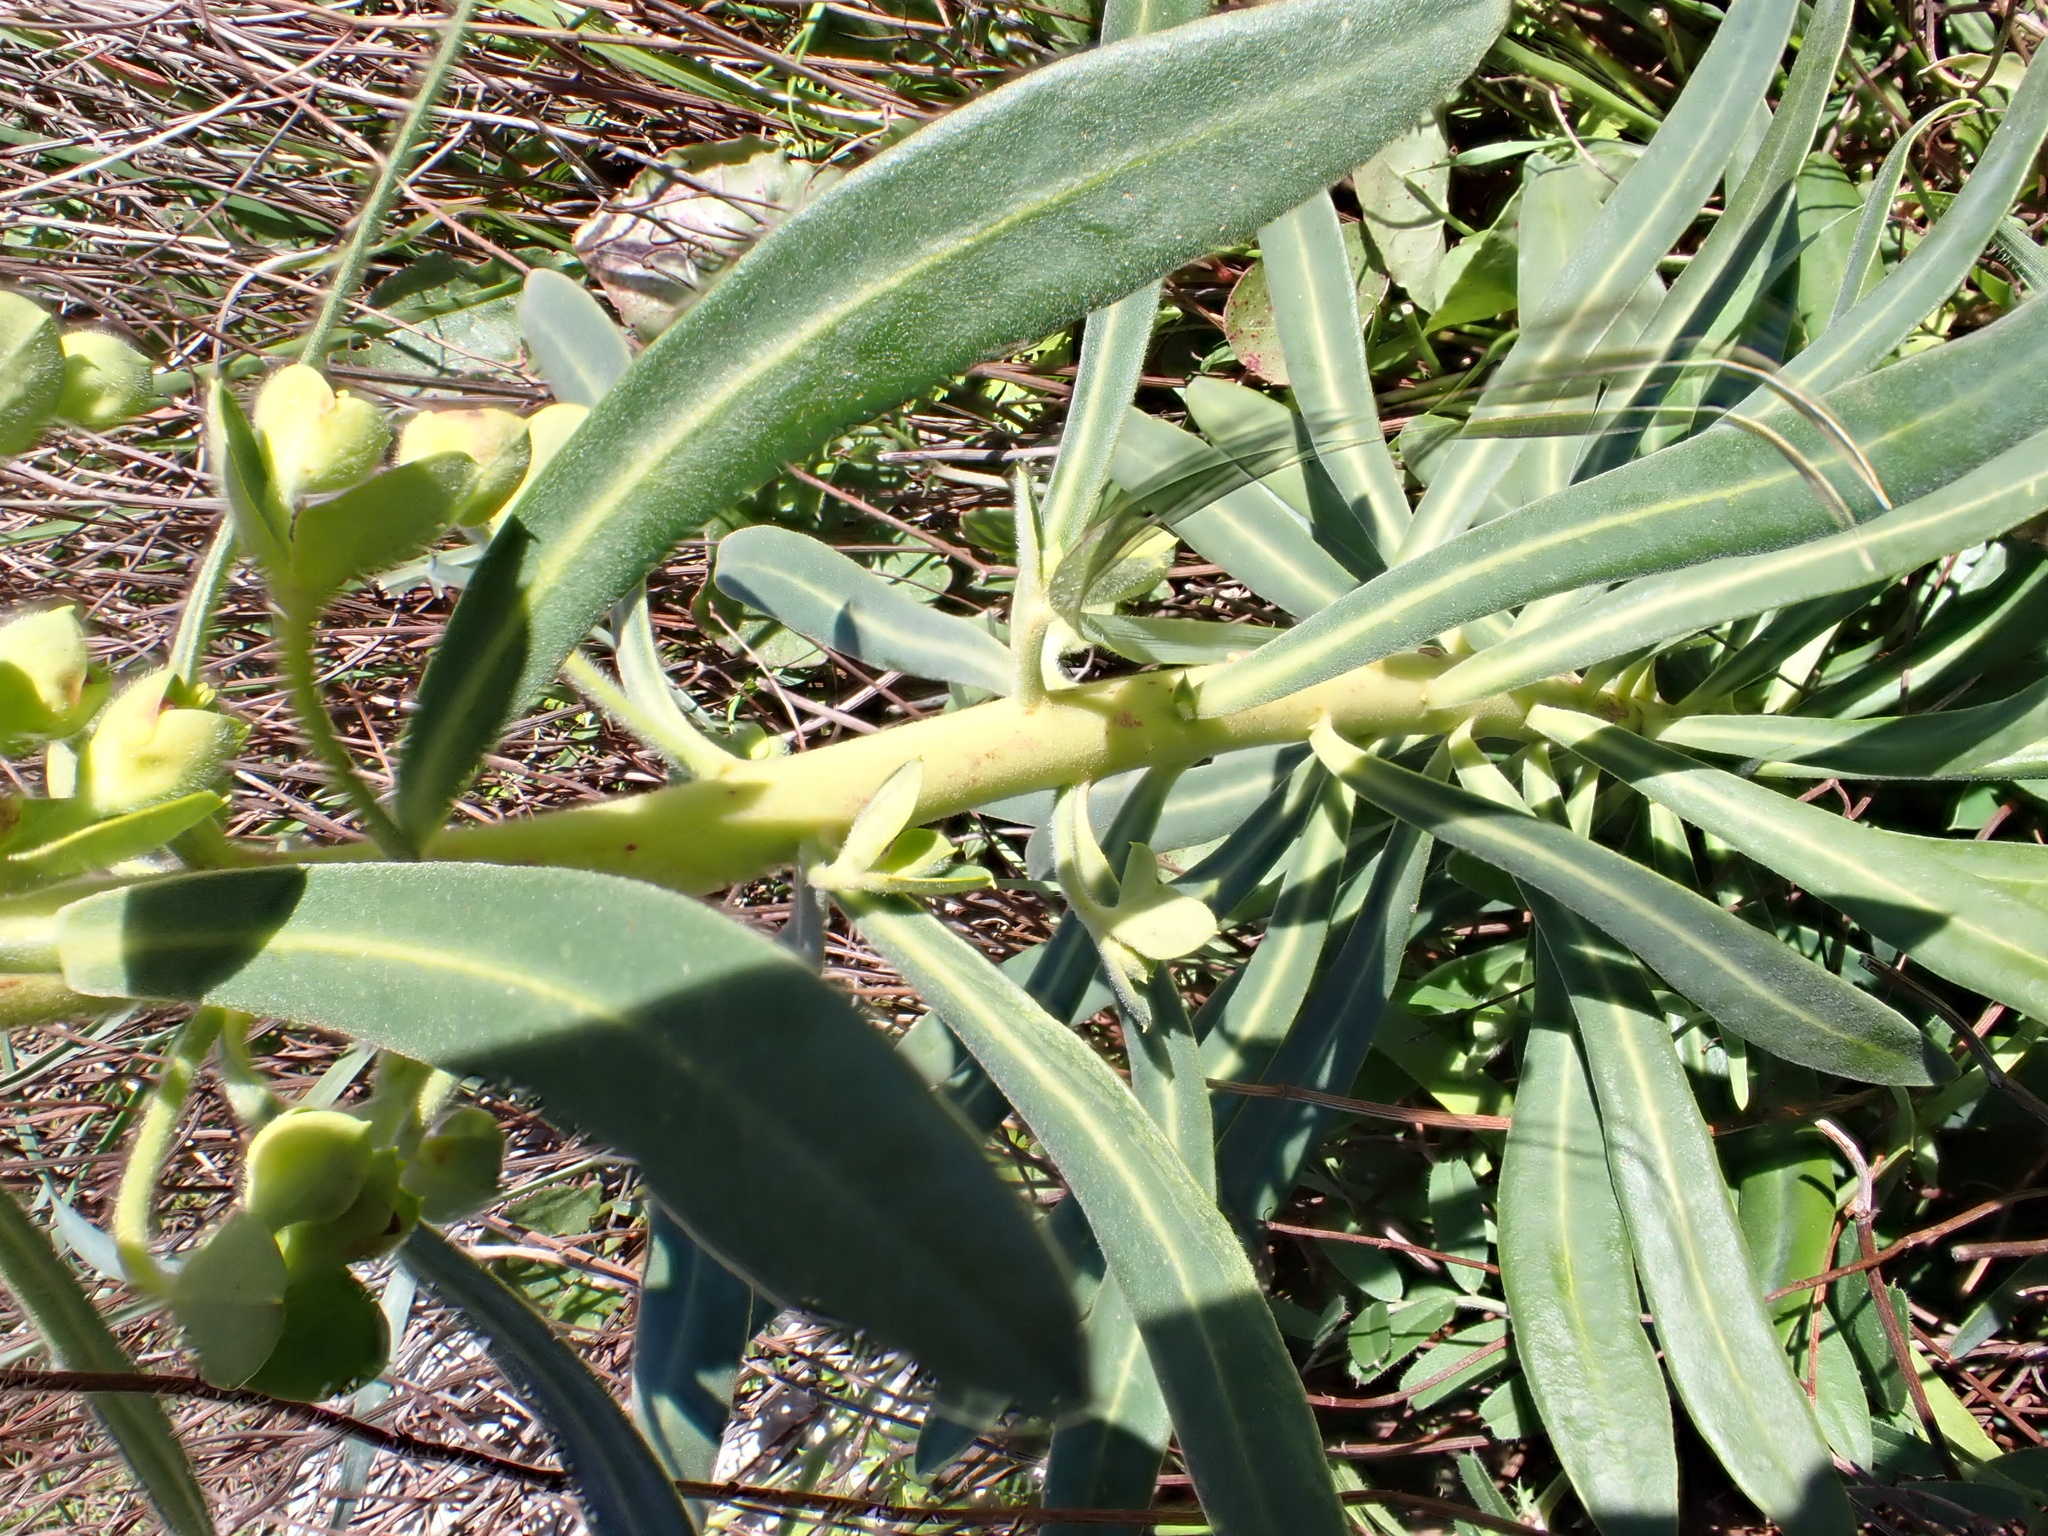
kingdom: Plantae
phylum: Tracheophyta
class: Magnoliopsida
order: Malpighiales
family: Euphorbiaceae
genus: Euphorbia
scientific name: Euphorbia characias
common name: Mediterranean spurge
